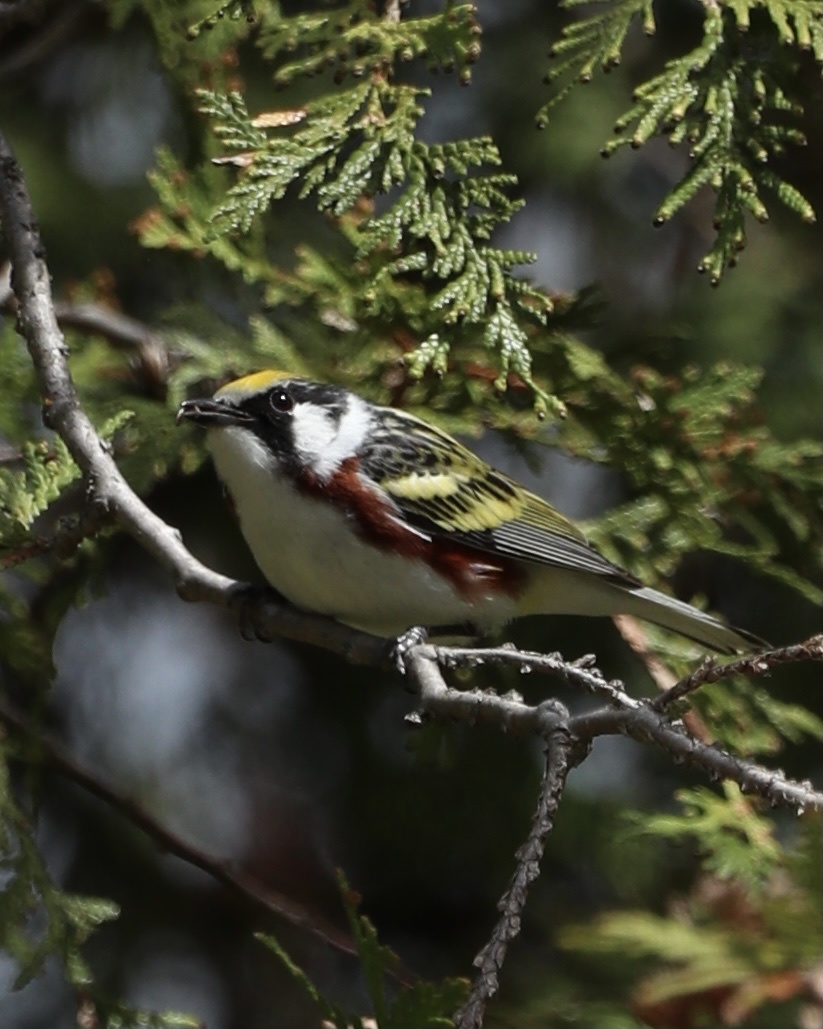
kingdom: Animalia
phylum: Chordata
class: Aves
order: Passeriformes
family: Parulidae
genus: Setophaga
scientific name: Setophaga pensylvanica
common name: Chestnut-sided warbler
